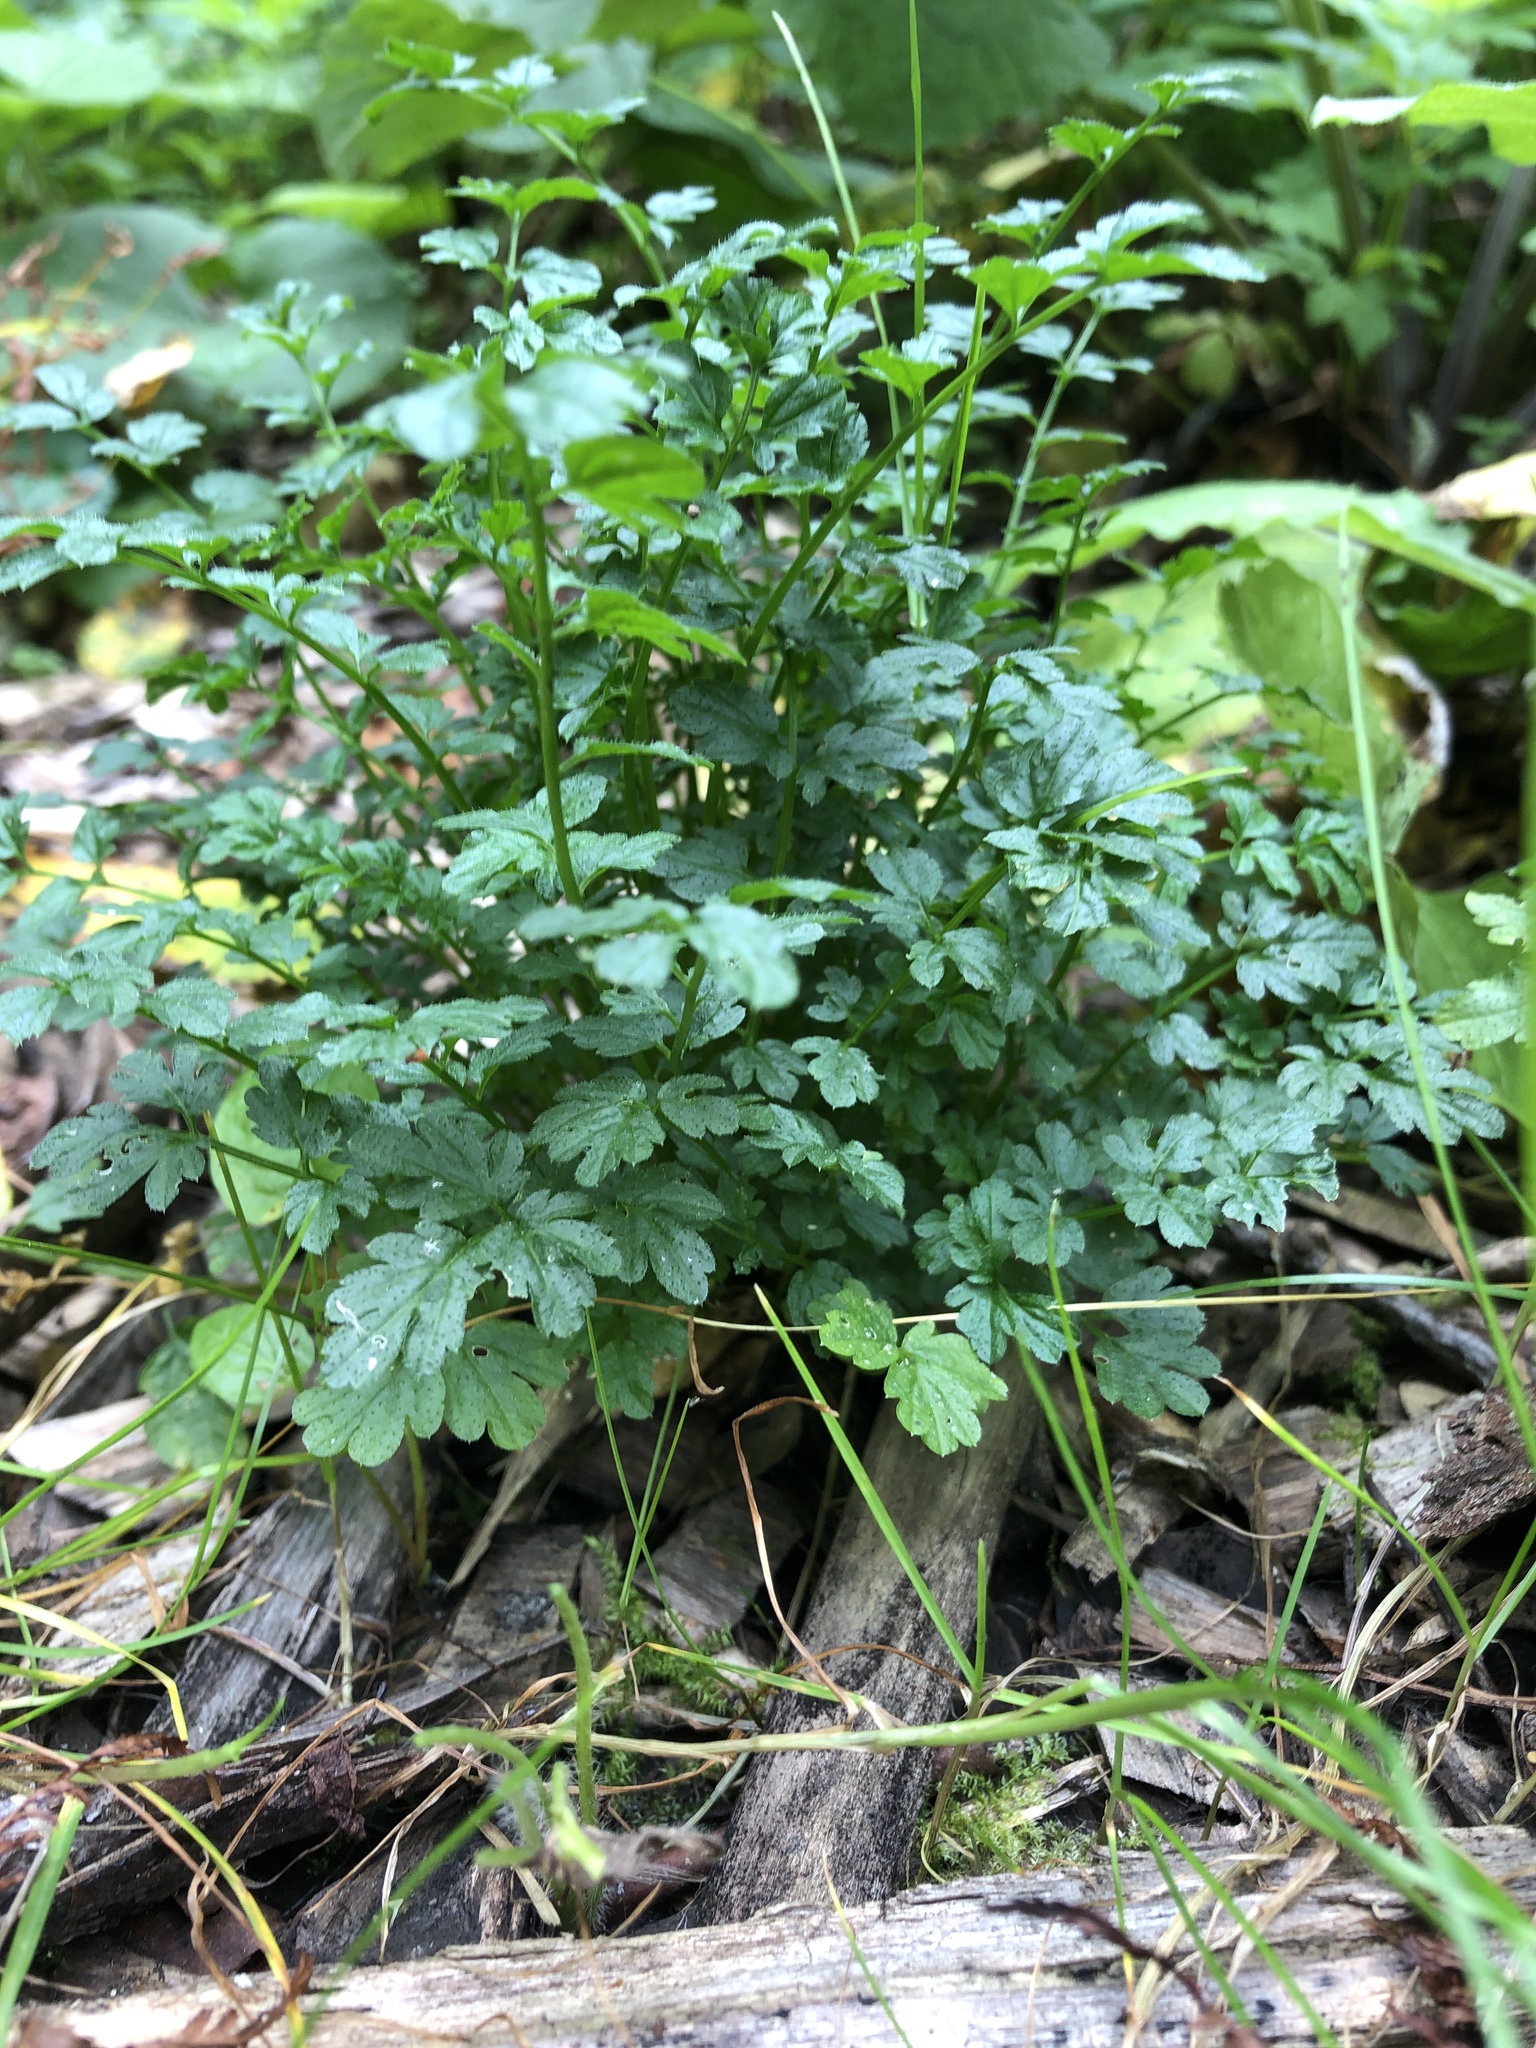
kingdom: Plantae
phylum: Tracheophyta
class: Magnoliopsida
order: Brassicales
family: Brassicaceae
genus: Cardamine
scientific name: Cardamine impatiens
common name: Narrow-leaved bitter-cress
